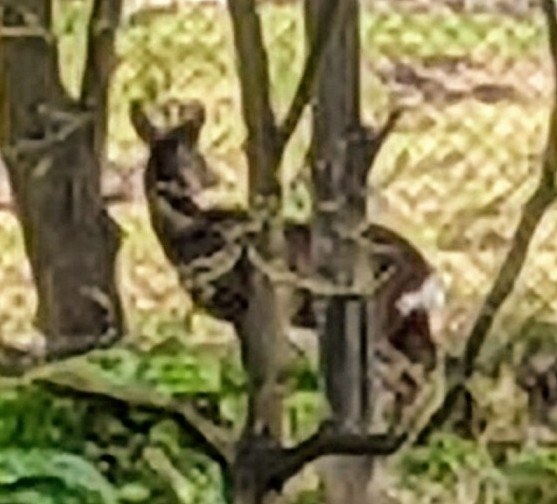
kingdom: Animalia
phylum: Chordata
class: Mammalia
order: Artiodactyla
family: Cervidae
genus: Capreolus
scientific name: Capreolus capreolus
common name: Western roe deer
